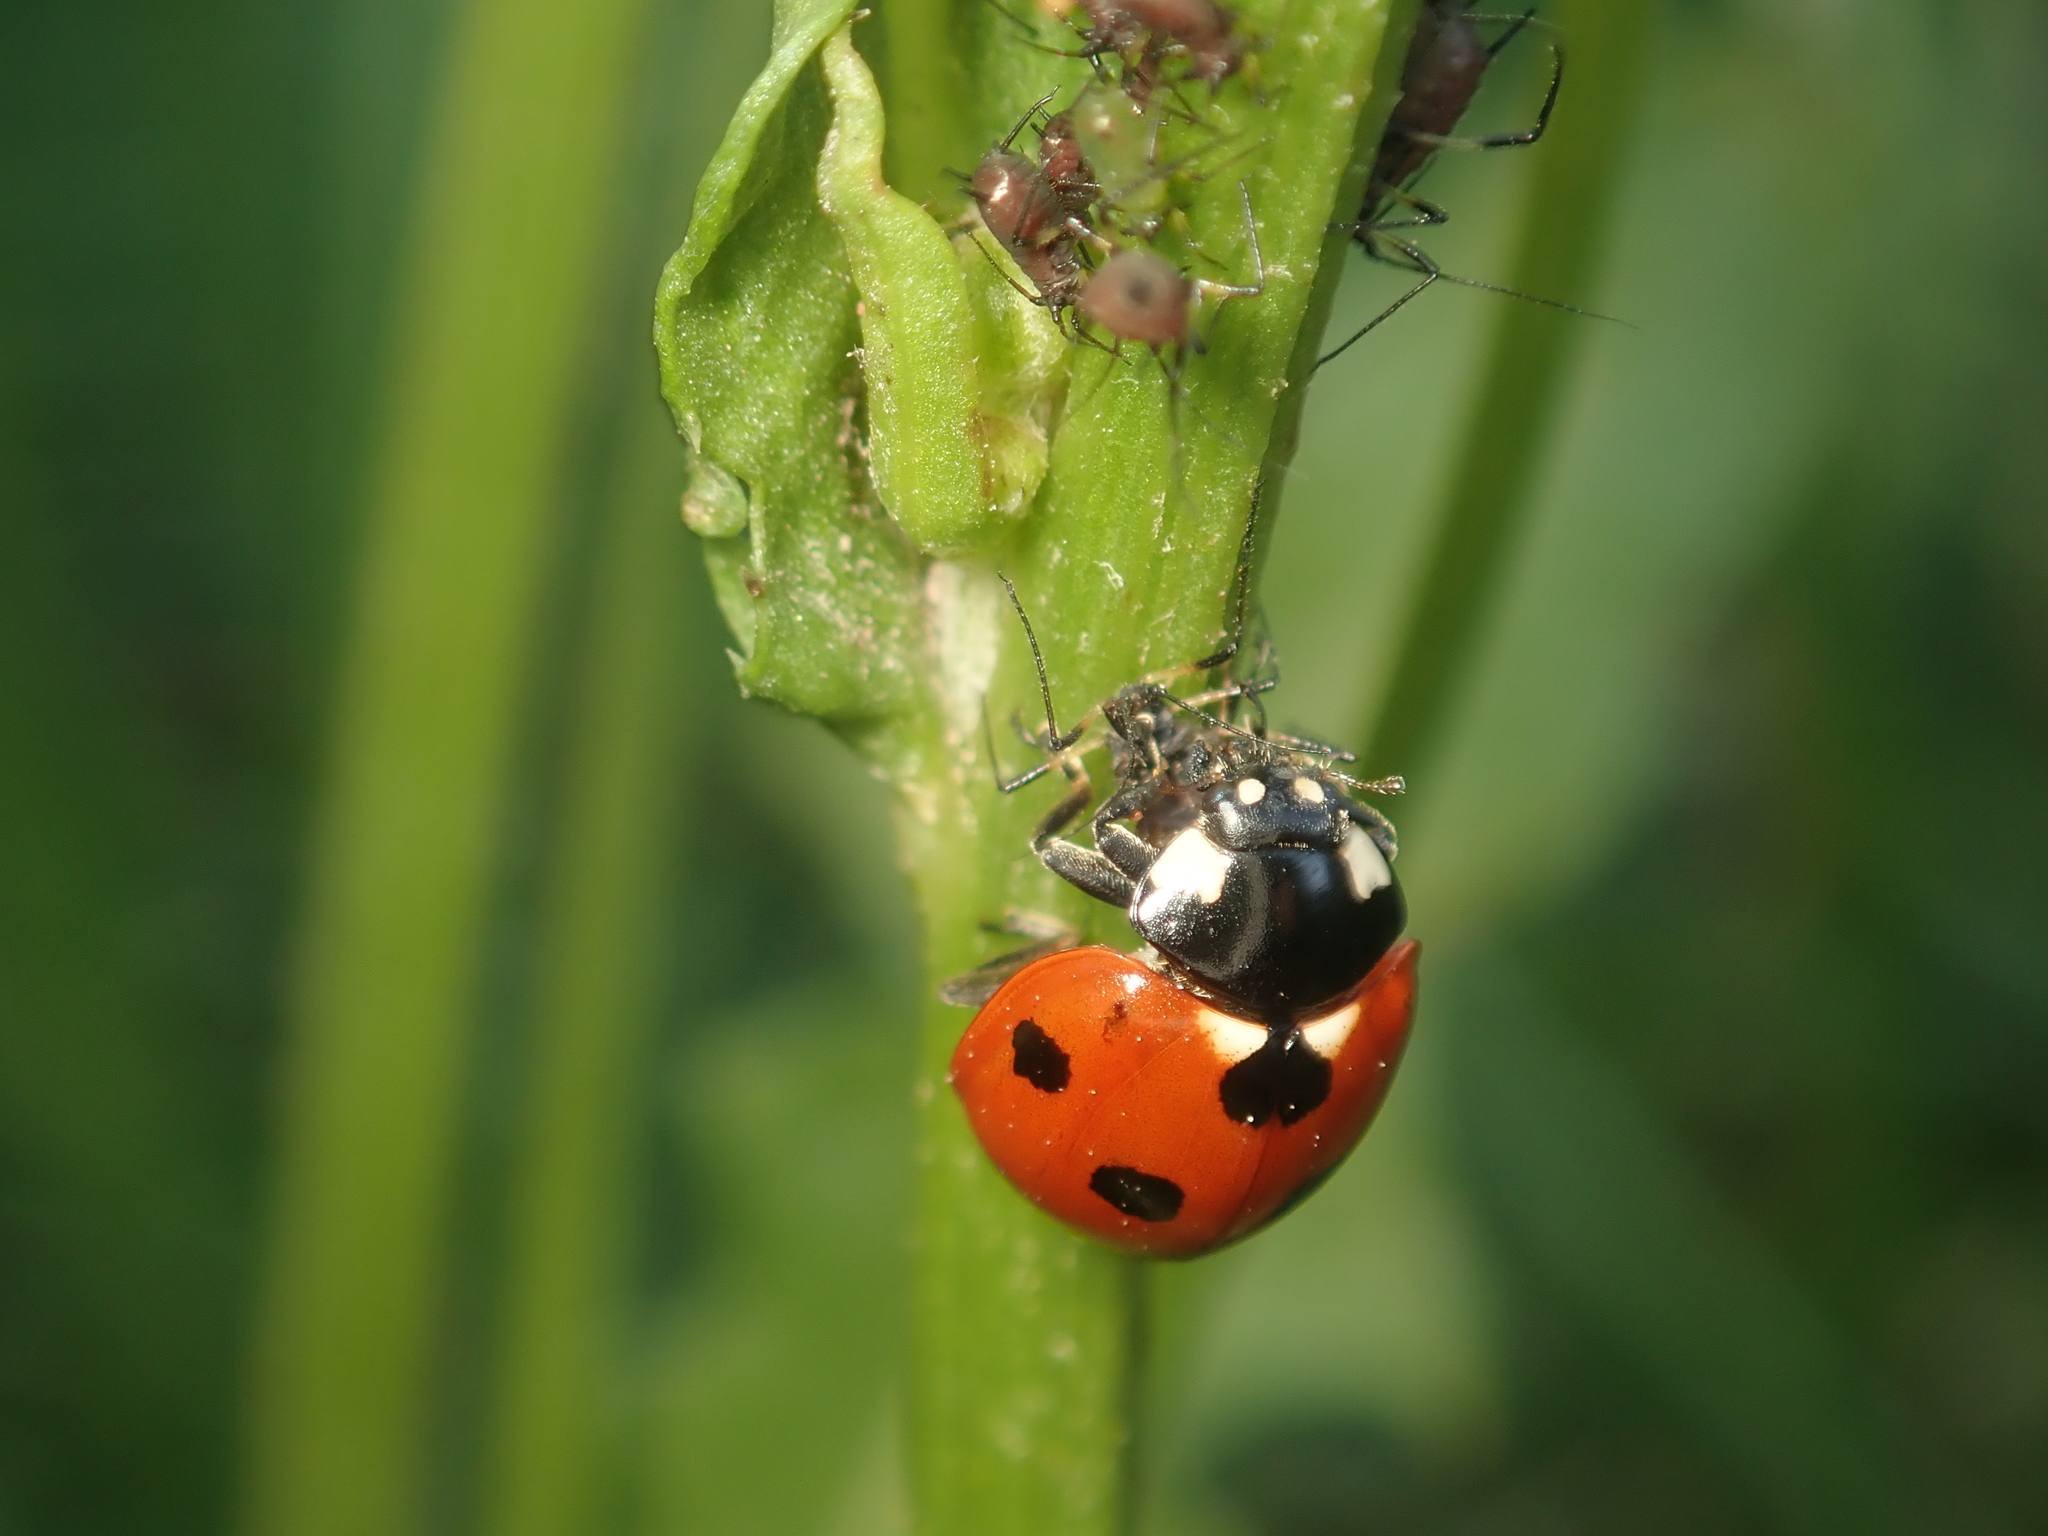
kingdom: Animalia
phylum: Arthropoda
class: Insecta
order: Coleoptera
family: Coccinellidae
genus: Coccinella
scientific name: Coccinella septempunctata
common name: Sevenspotted lady beetle
